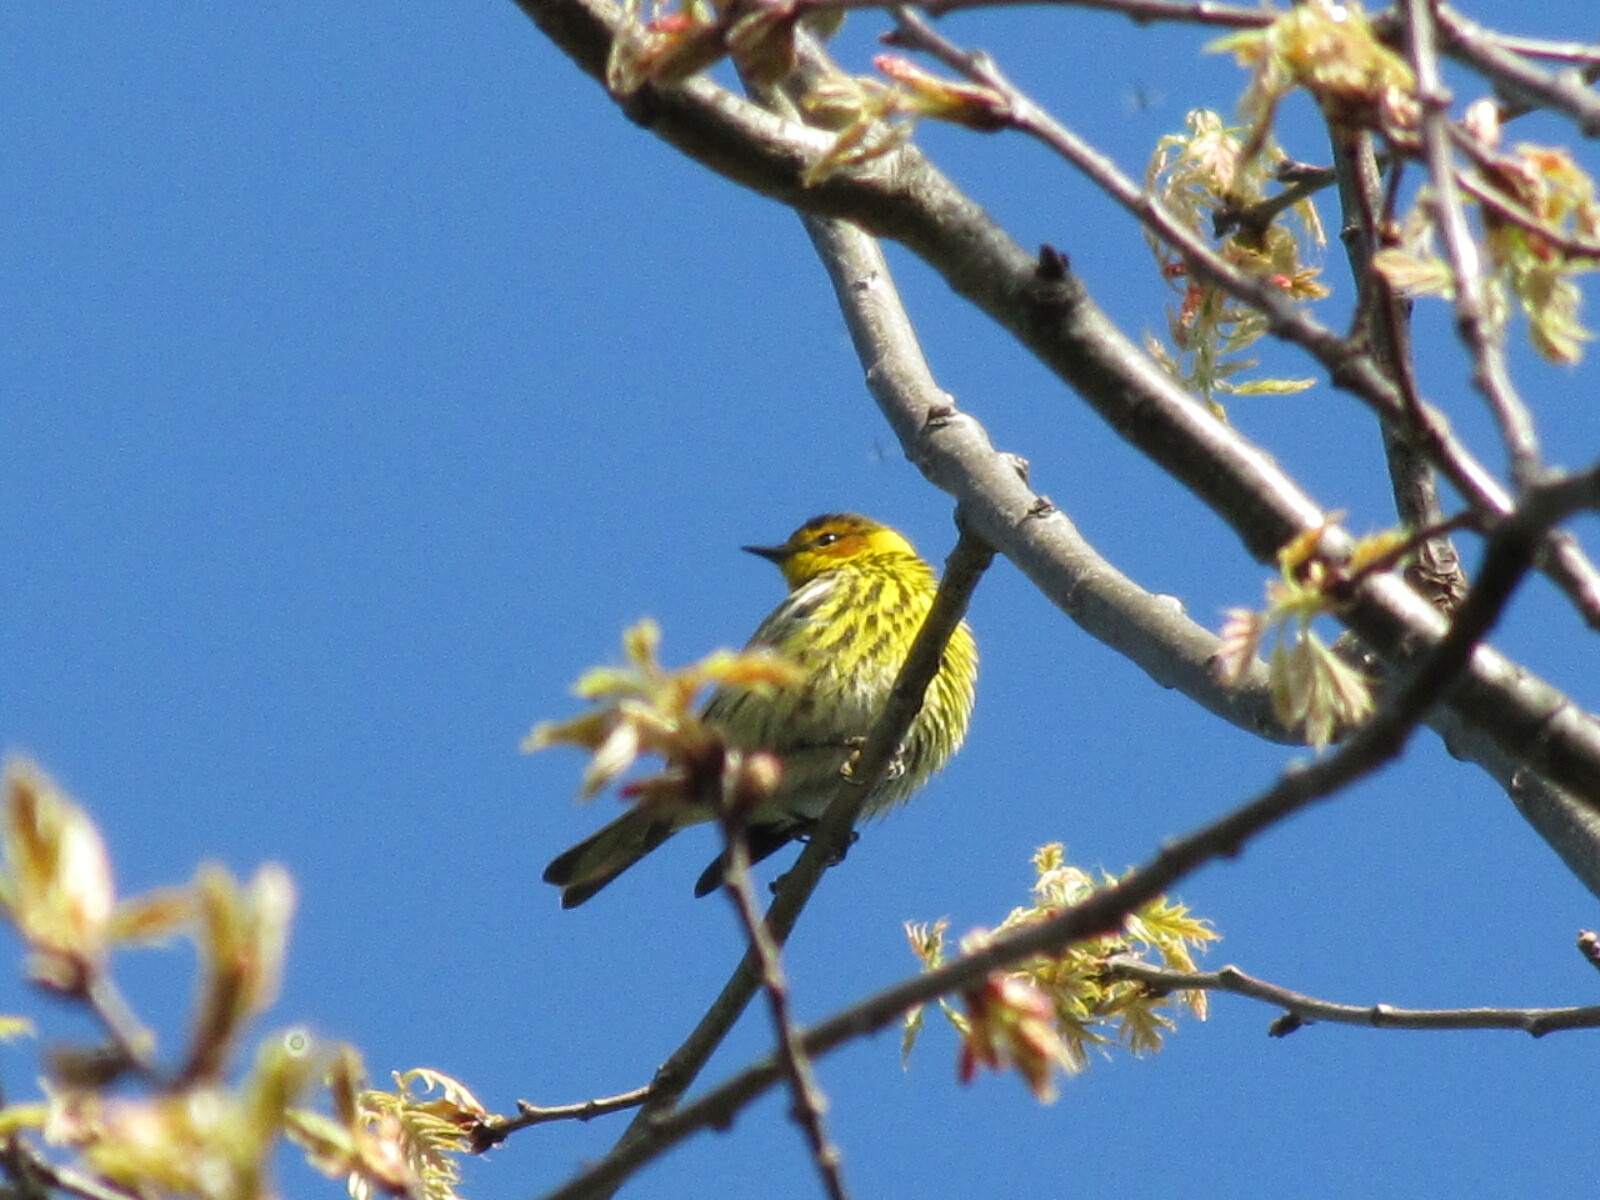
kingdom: Animalia
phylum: Chordata
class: Aves
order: Passeriformes
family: Parulidae
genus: Setophaga
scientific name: Setophaga tigrina
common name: Cape may warbler
